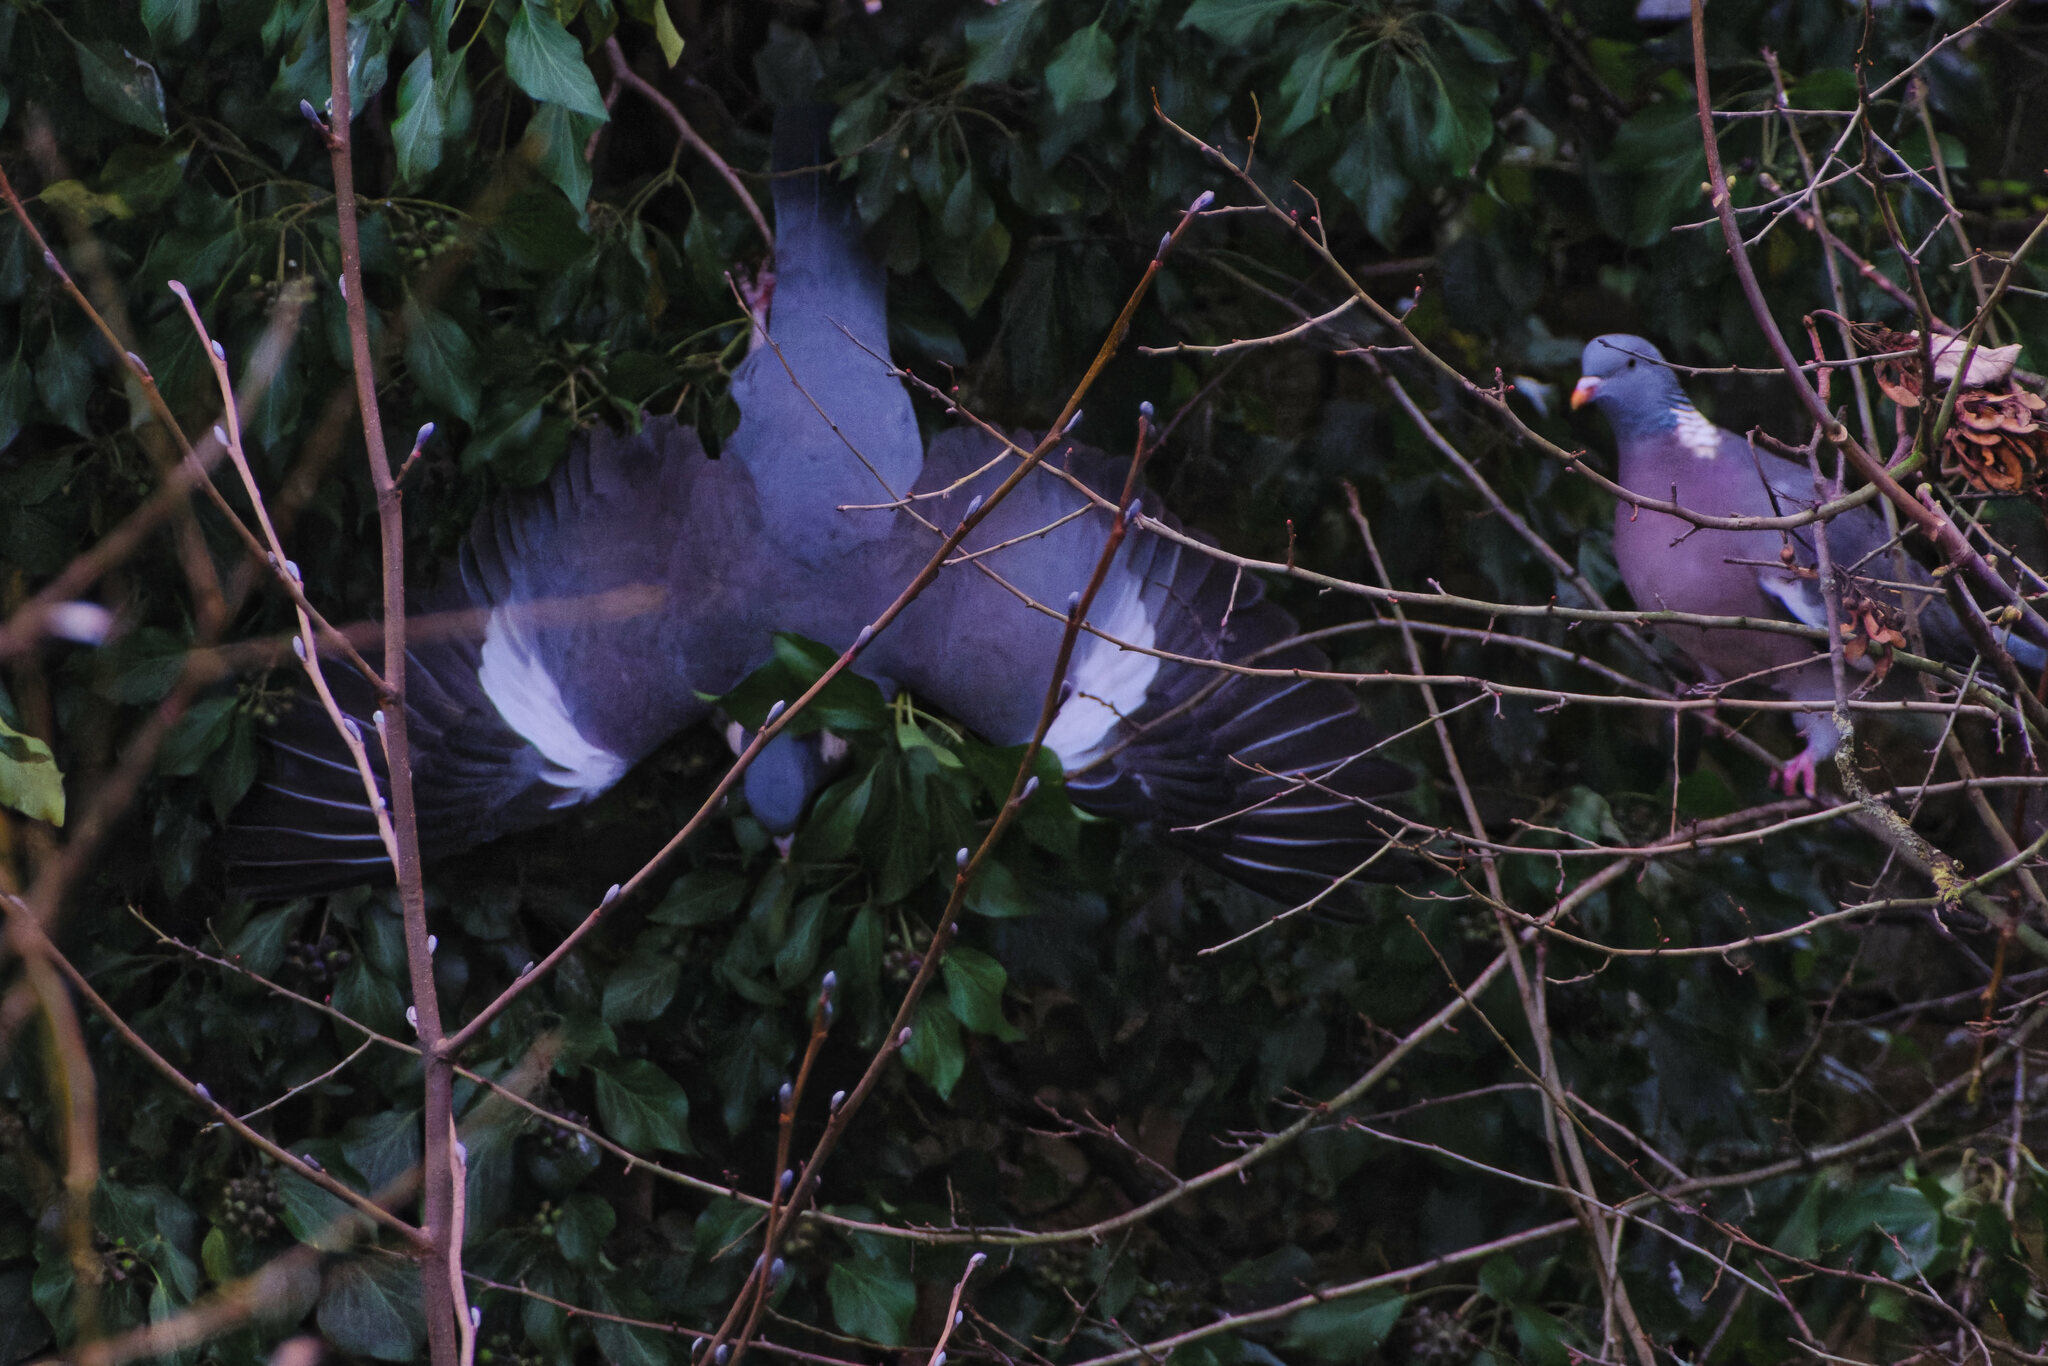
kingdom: Animalia
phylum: Chordata
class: Aves
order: Columbiformes
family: Columbidae
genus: Columba
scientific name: Columba palumbus
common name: Common wood pigeon
